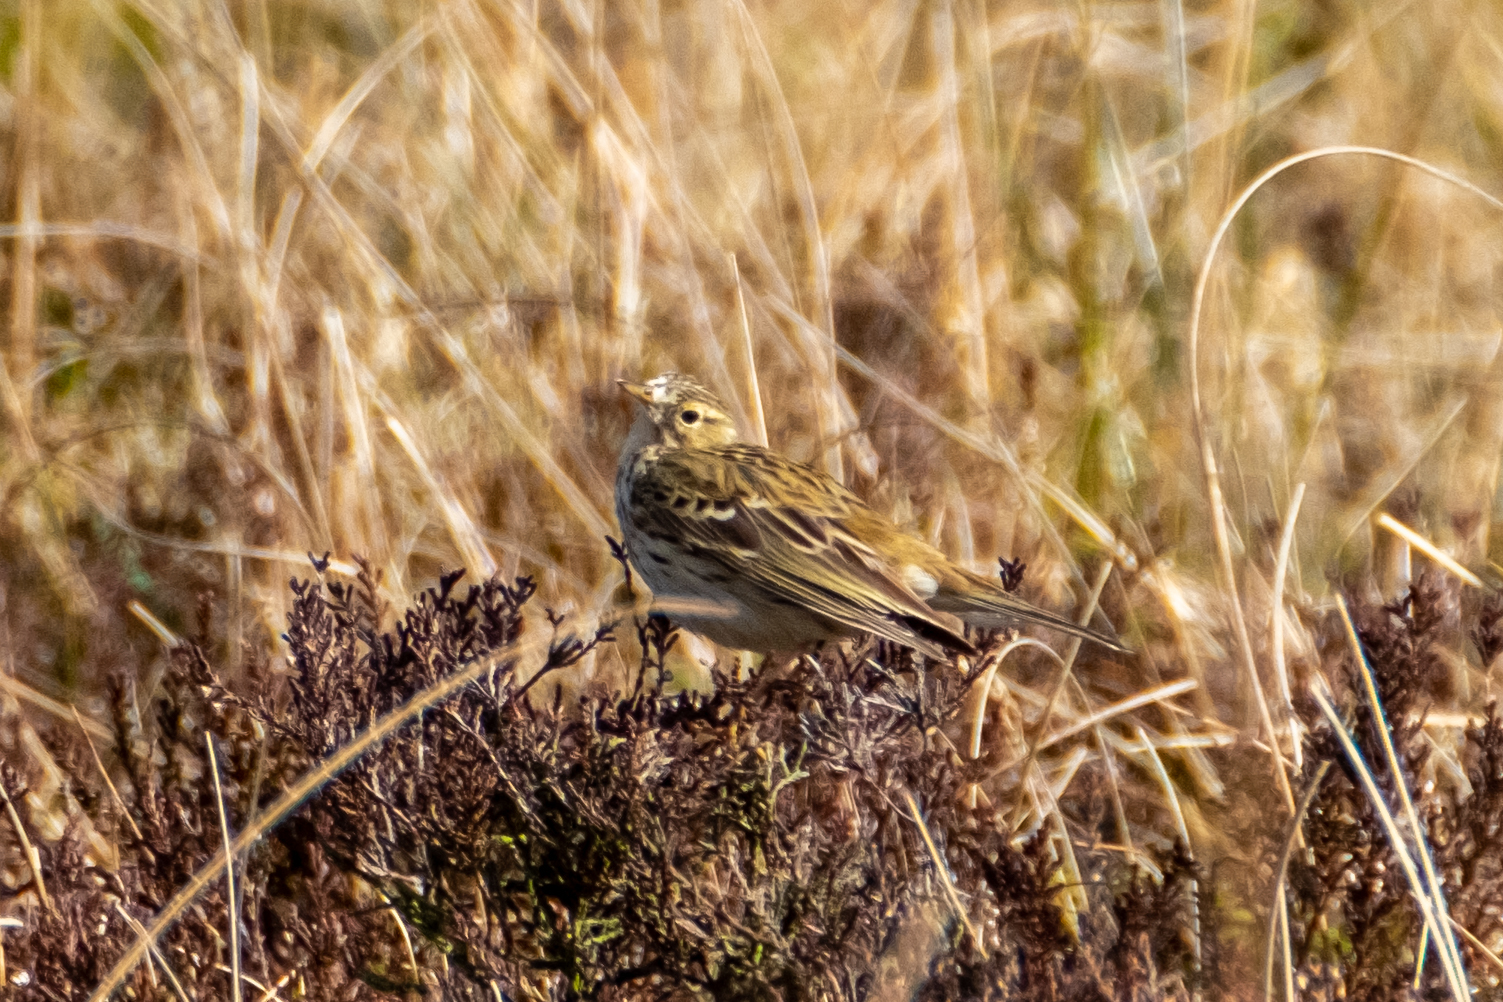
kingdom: Animalia
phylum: Chordata
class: Aves
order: Passeriformes
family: Motacillidae
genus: Anthus
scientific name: Anthus pratensis
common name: Meadow pipit
